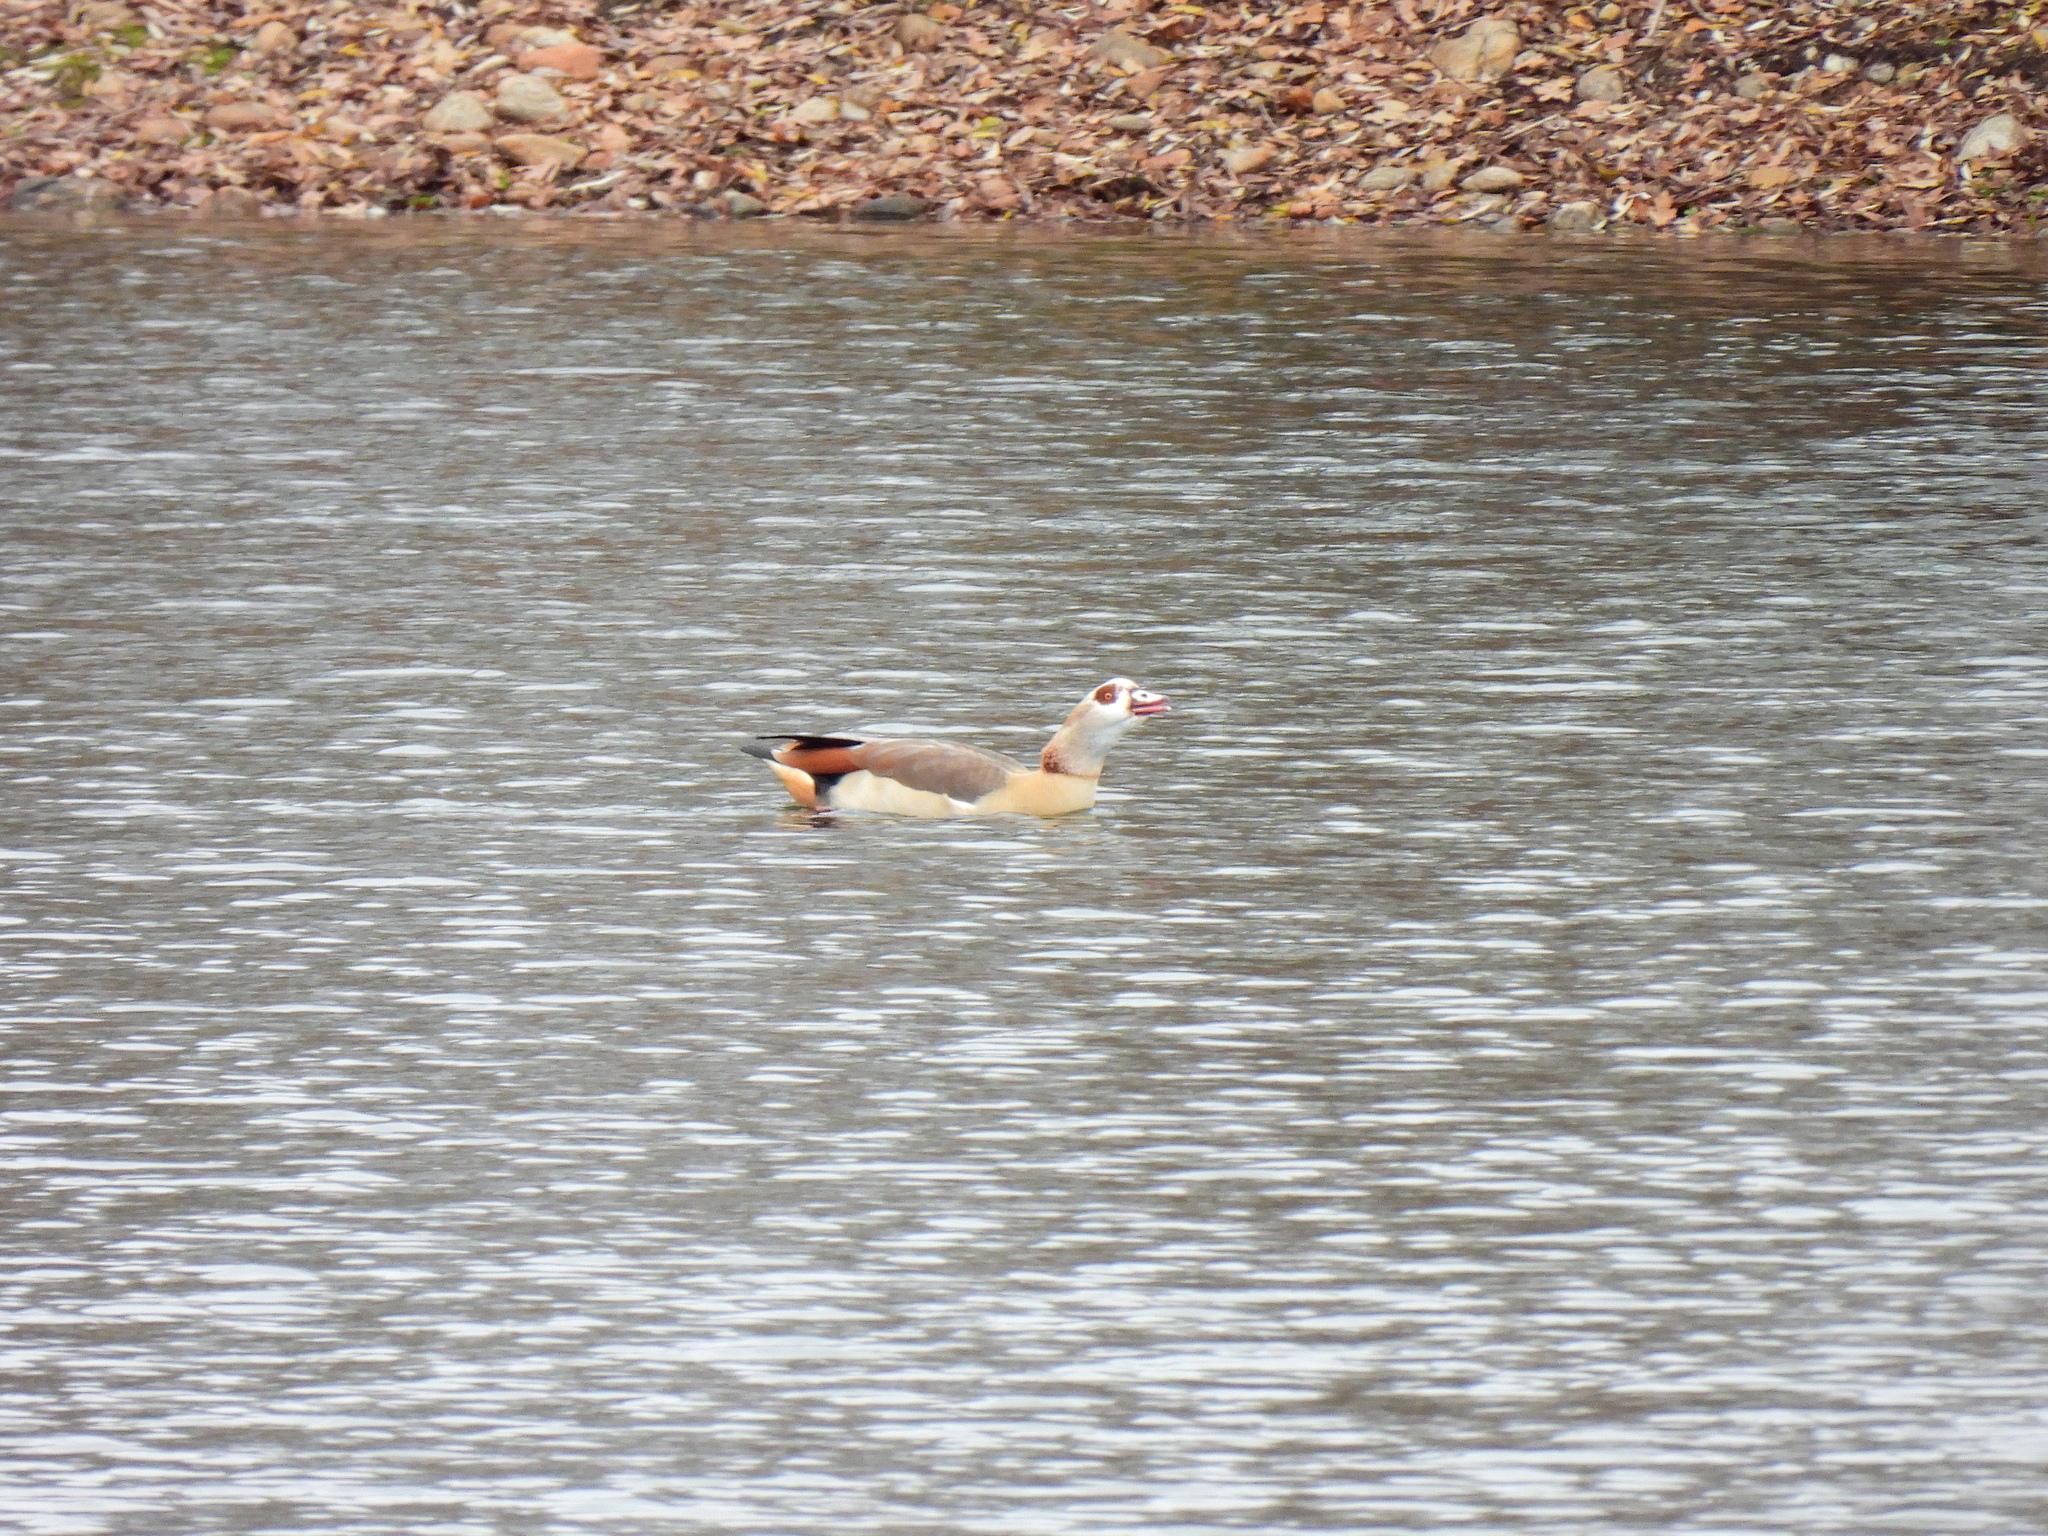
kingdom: Animalia
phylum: Chordata
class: Aves
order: Anseriformes
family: Anatidae
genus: Alopochen
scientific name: Alopochen aegyptiaca
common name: Egyptian goose
